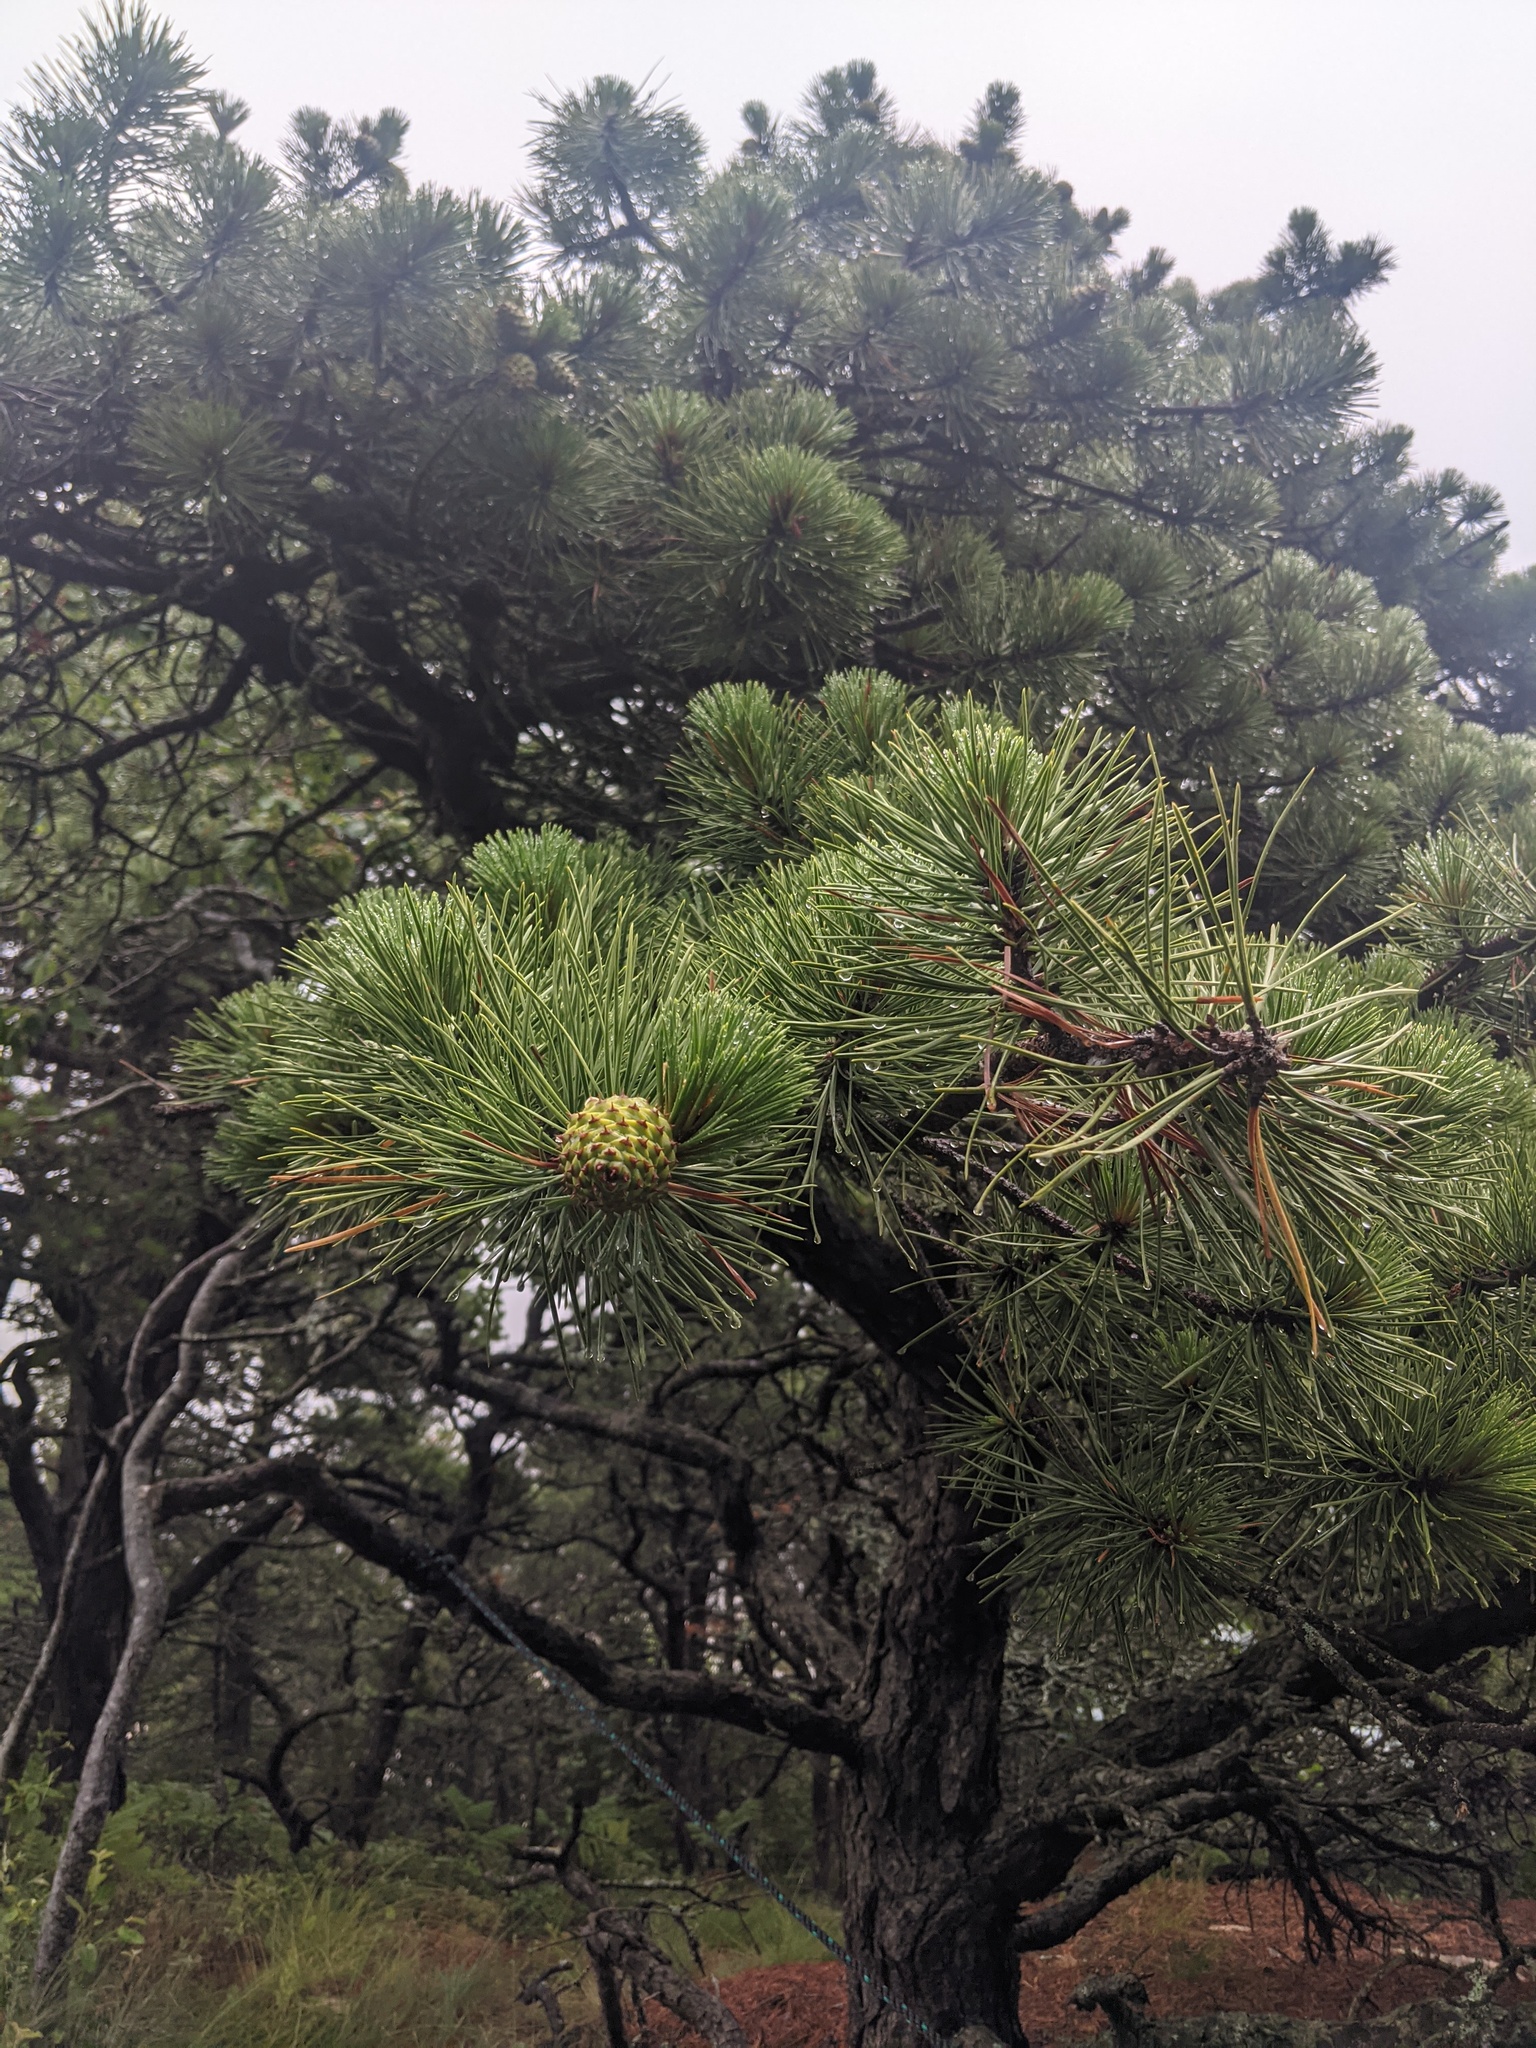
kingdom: Plantae
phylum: Tracheophyta
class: Pinopsida
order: Pinales
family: Pinaceae
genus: Pinus
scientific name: Pinus rigida
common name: Pitch pine
